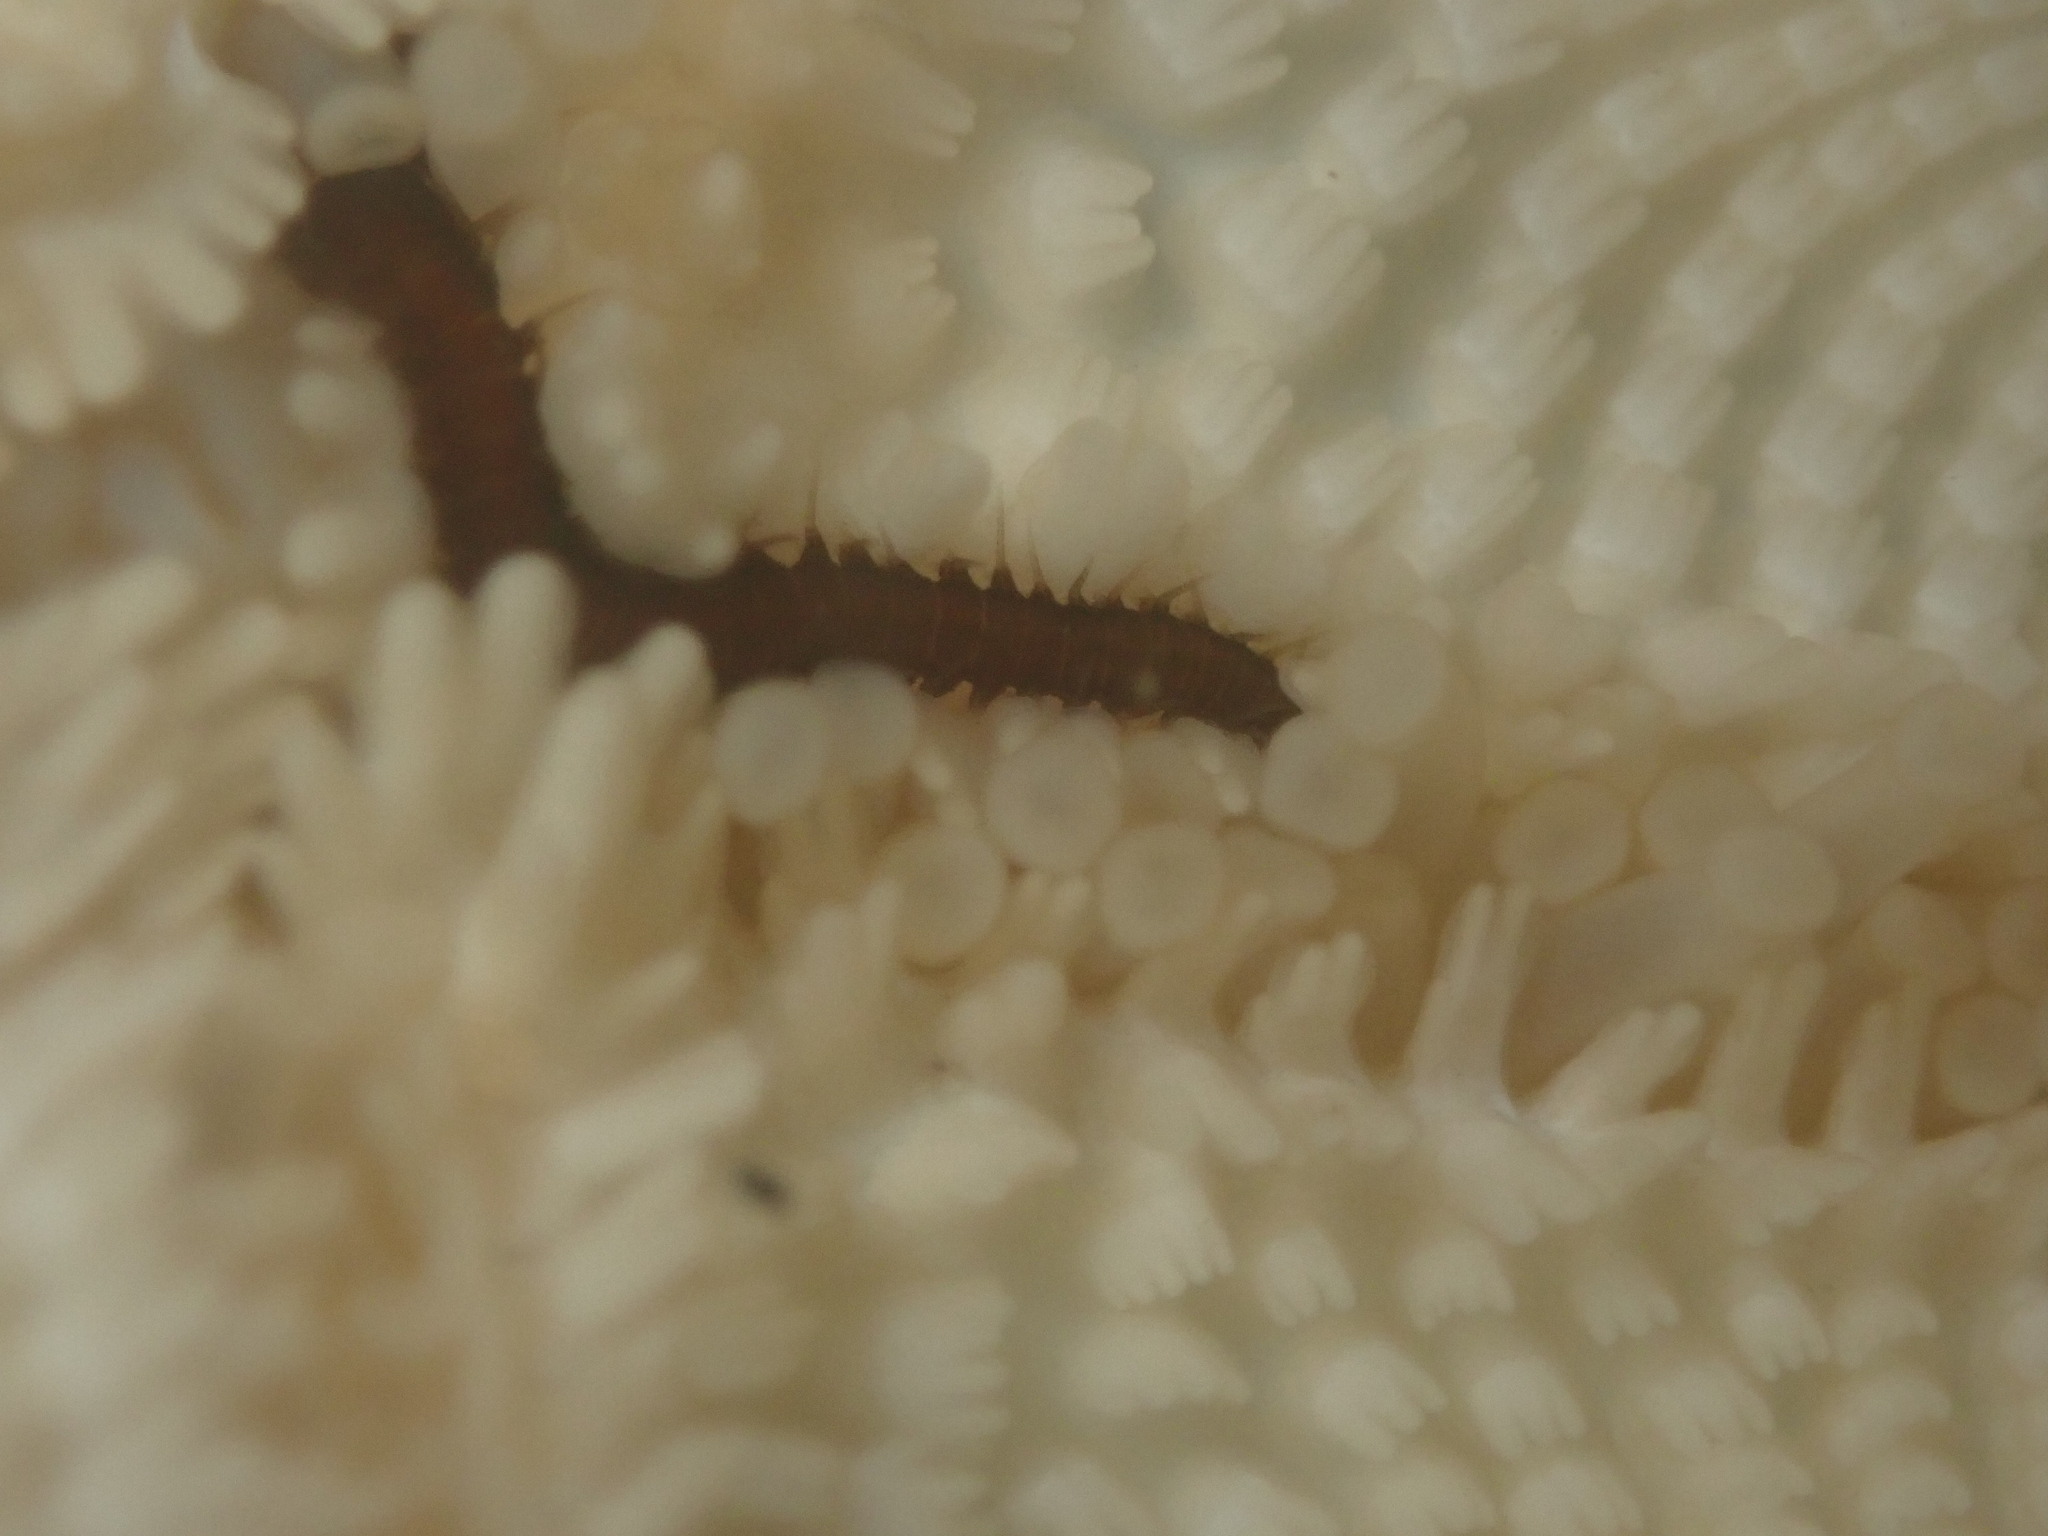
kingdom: Animalia
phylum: Annelida
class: Polychaeta
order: Phyllodocida
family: Hesionidae
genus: Oxydromus
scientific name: Oxydromus pugettensis
